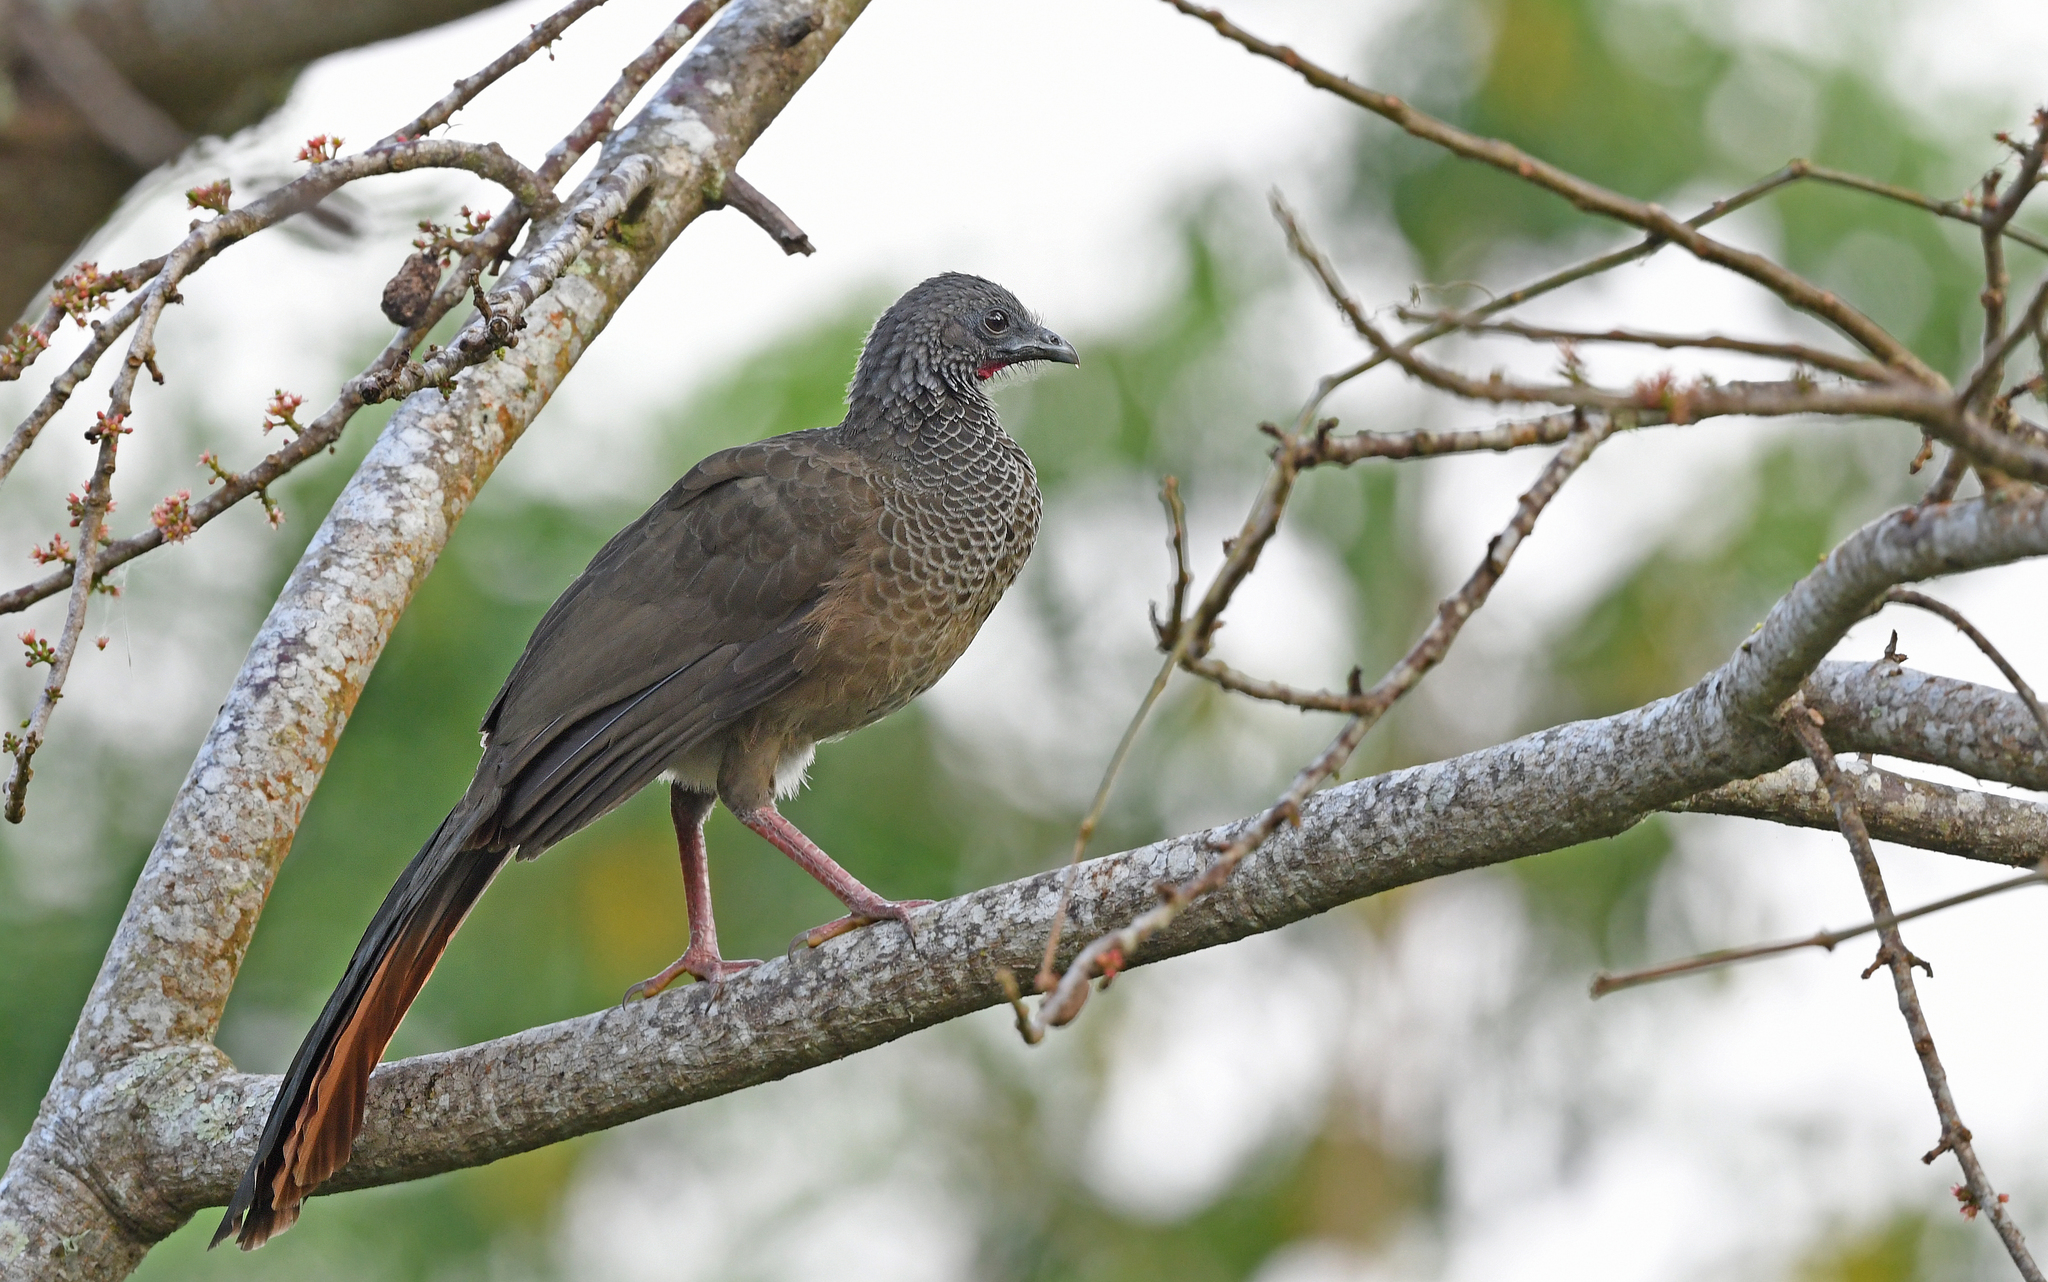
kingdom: Animalia
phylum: Chordata
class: Aves
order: Galliformes
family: Cracidae
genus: Ortalis
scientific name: Ortalis columbiana
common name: Colombian chachalaca
